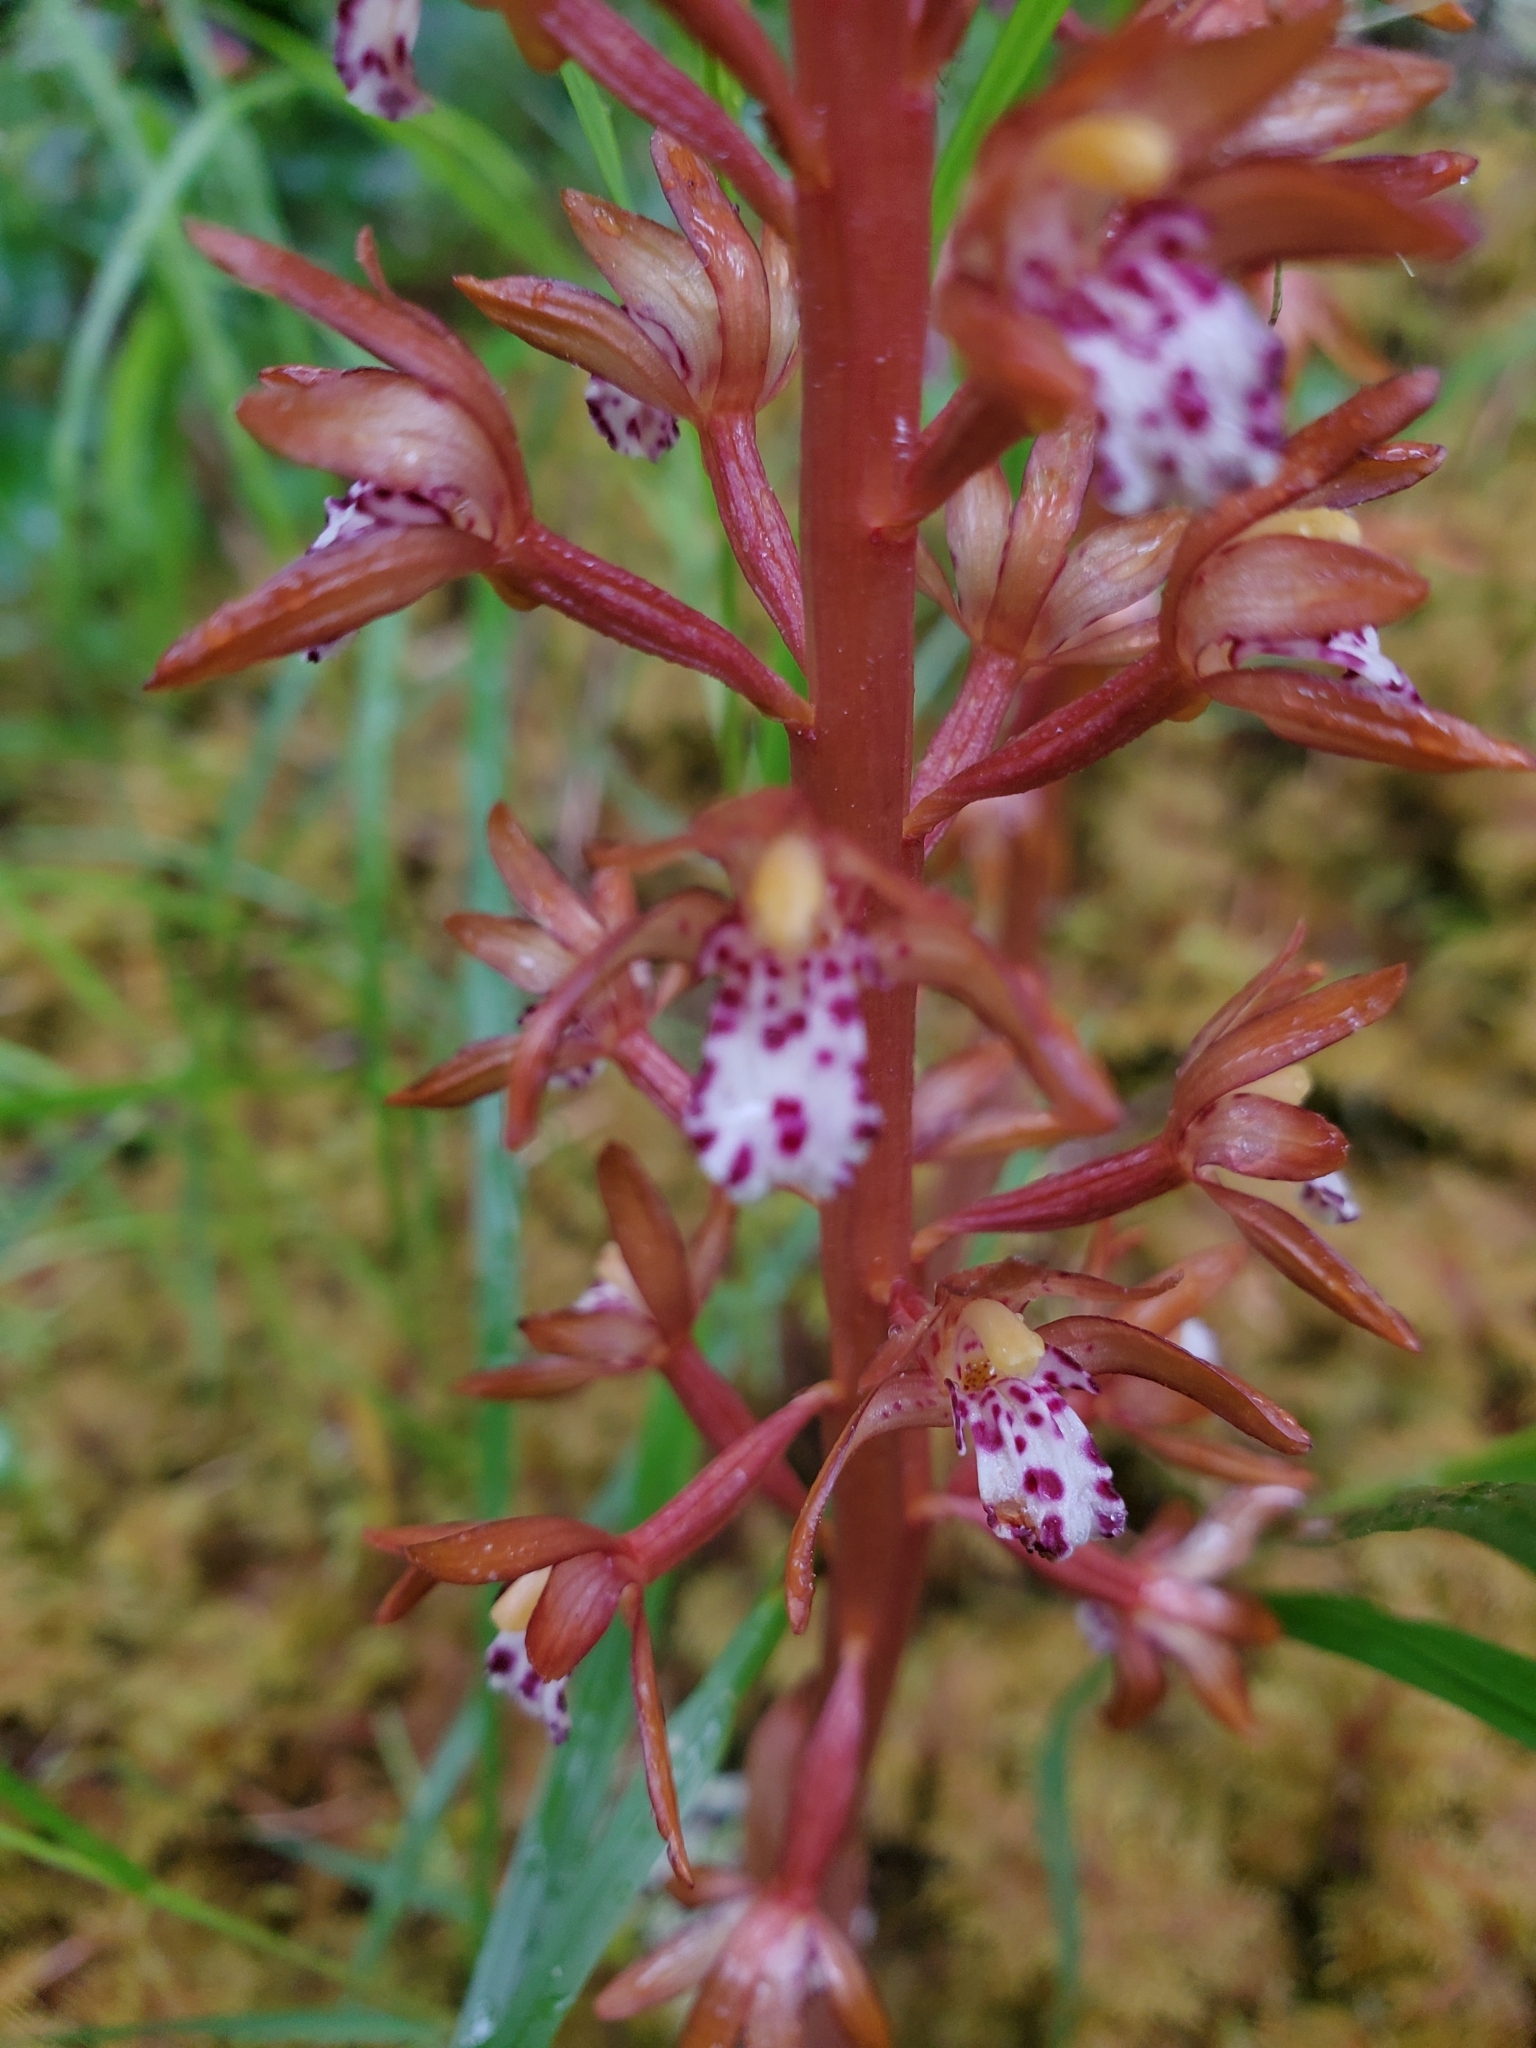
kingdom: Plantae
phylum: Tracheophyta
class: Liliopsida
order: Asparagales
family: Orchidaceae
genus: Corallorhiza
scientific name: Corallorhiza maculata
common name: Spotted coralroot
